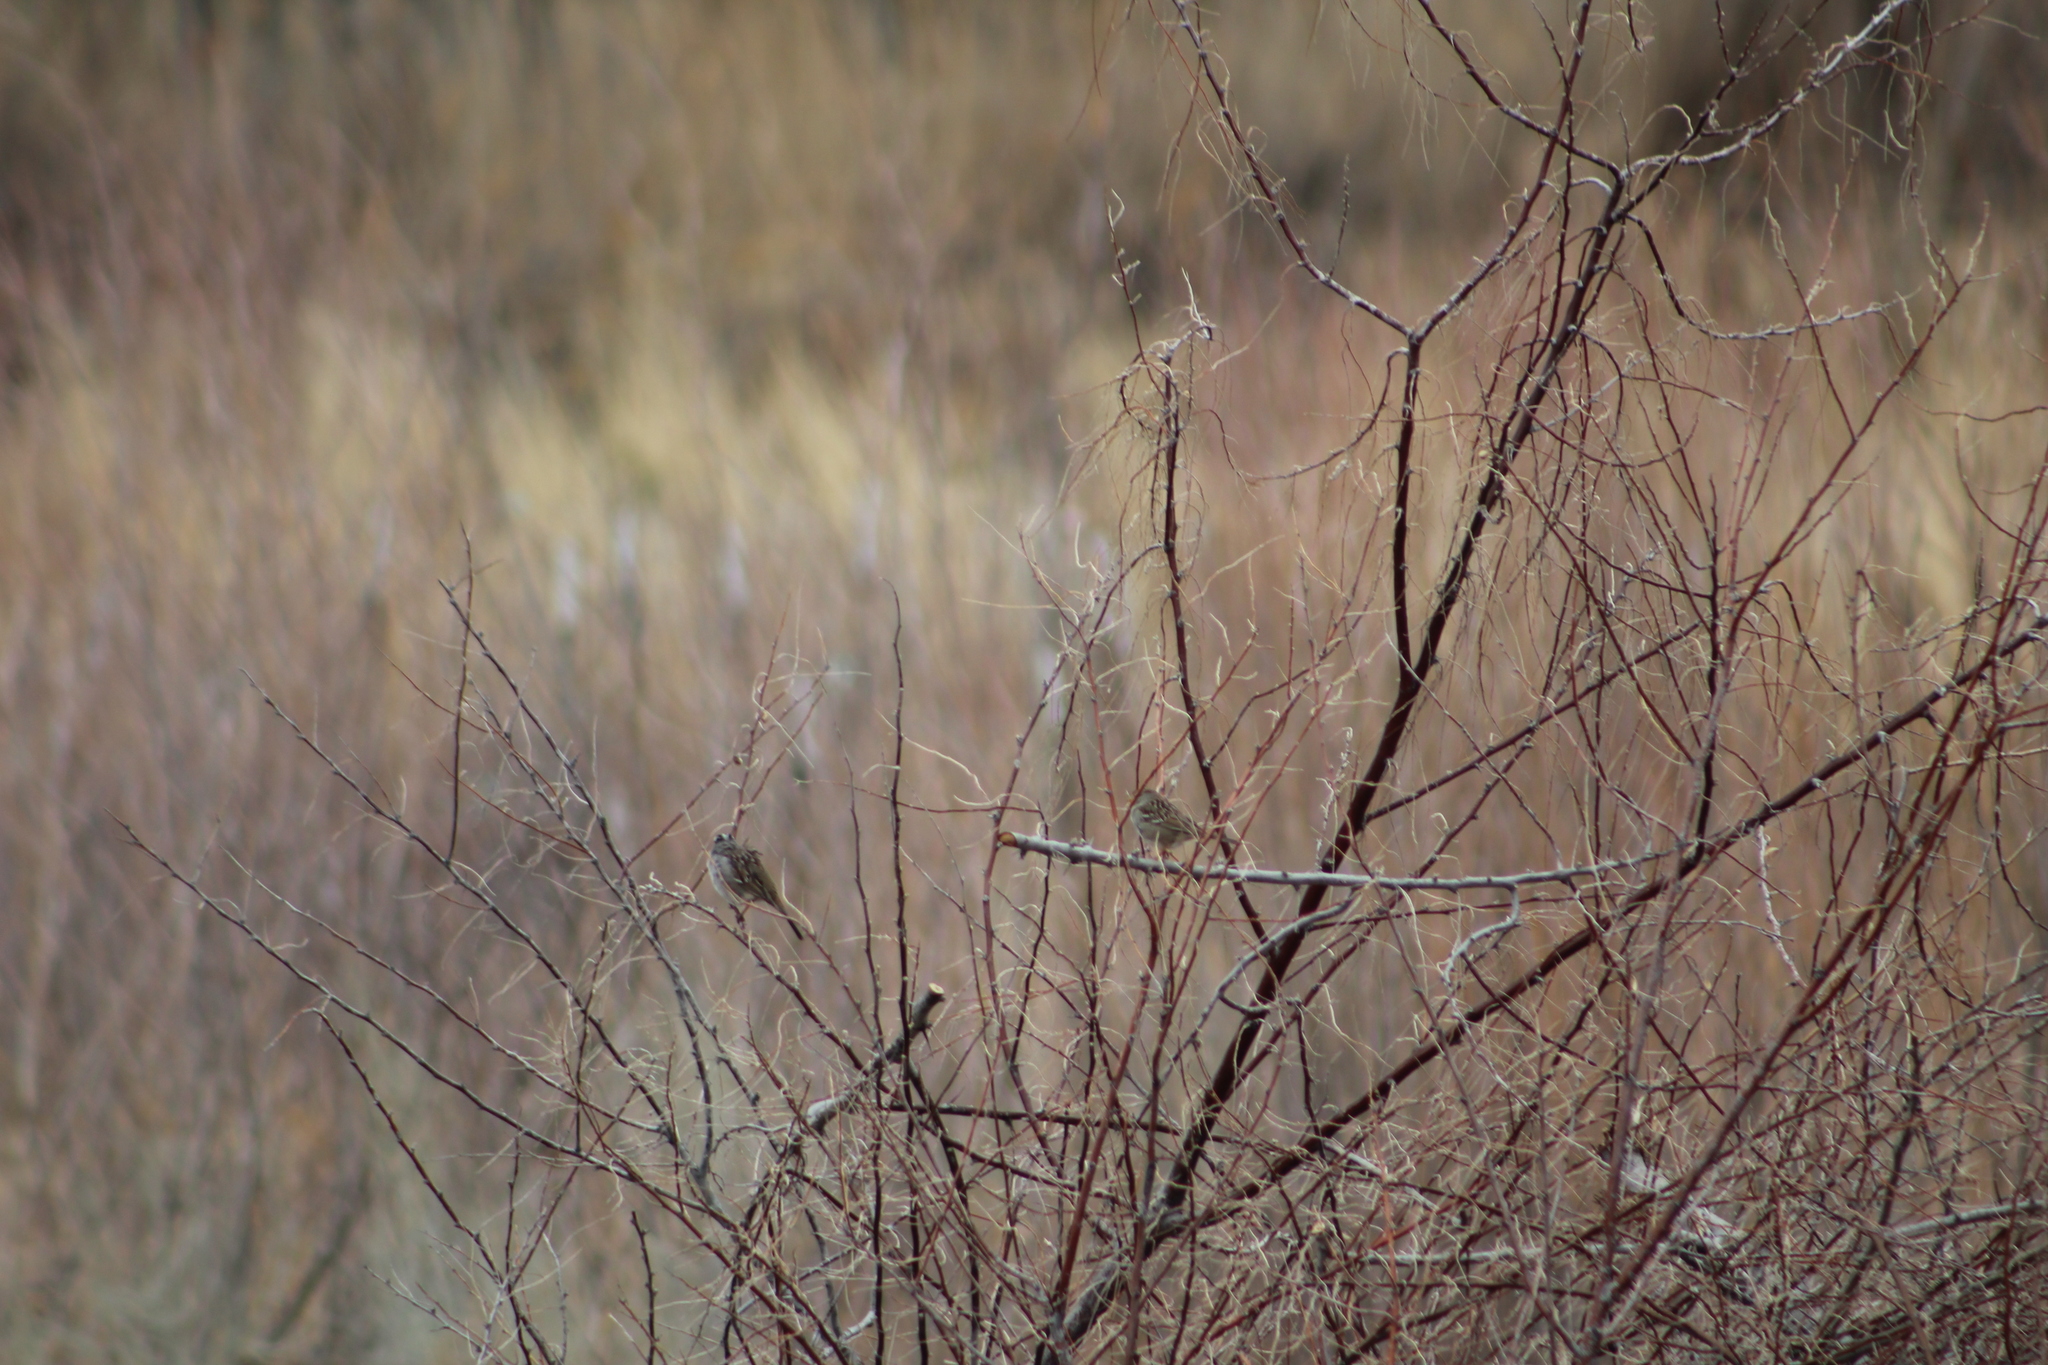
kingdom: Animalia
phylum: Chordata
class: Aves
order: Passeriformes
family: Passerellidae
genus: Zonotrichia
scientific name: Zonotrichia leucophrys
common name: White-crowned sparrow
